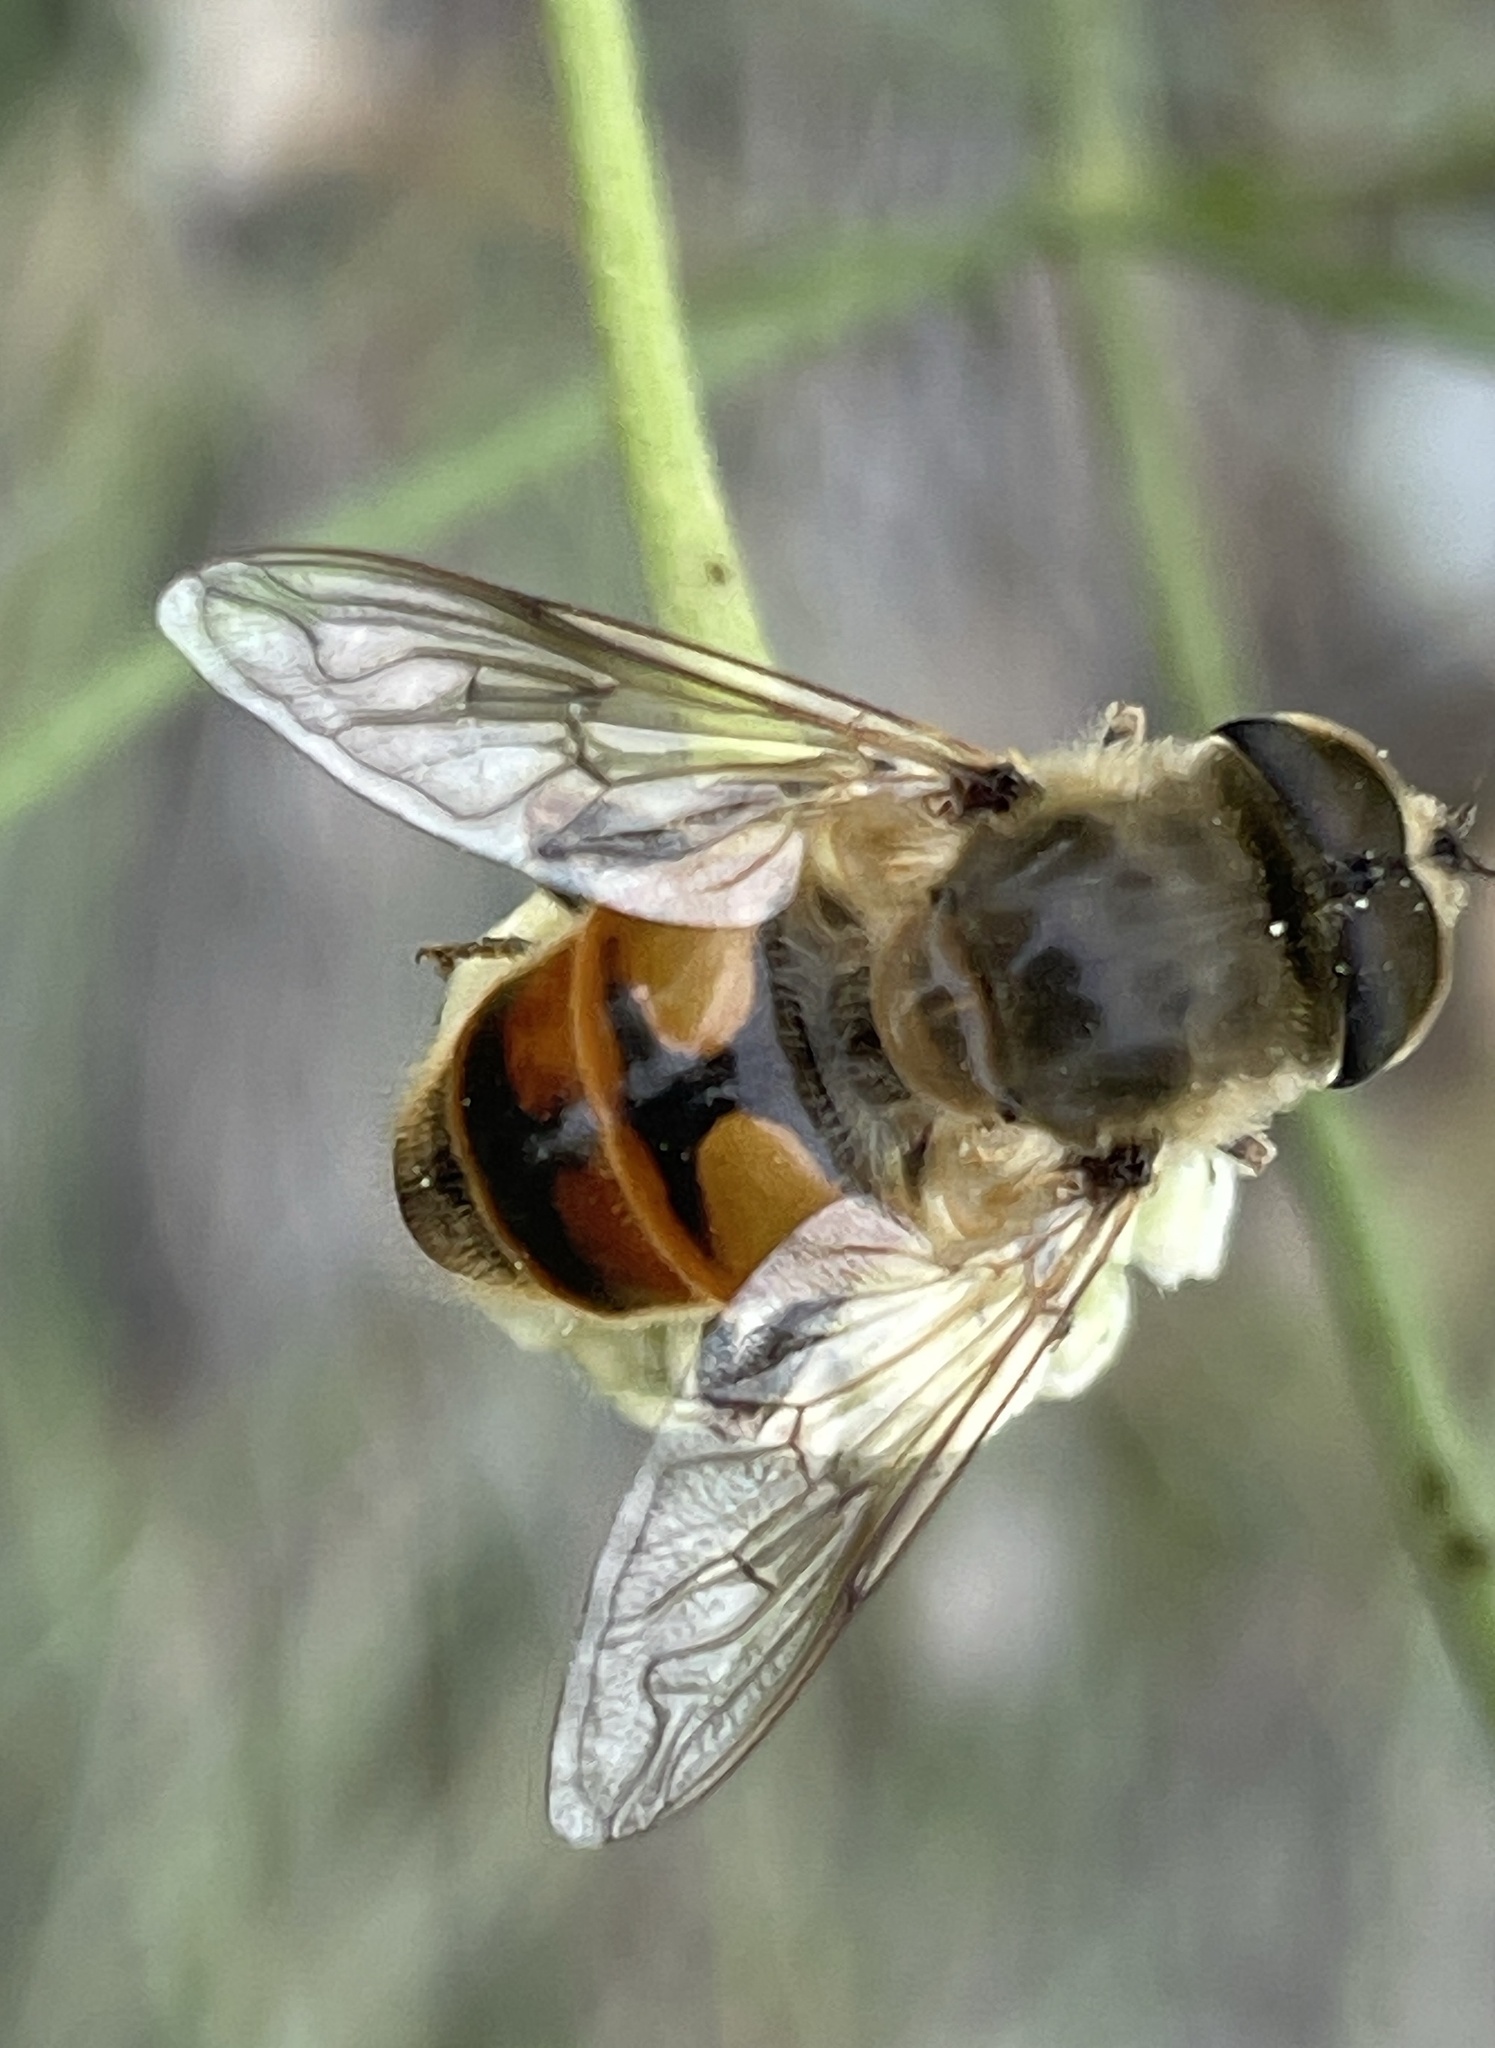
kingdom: Animalia
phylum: Arthropoda
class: Insecta
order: Diptera
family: Syrphidae
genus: Eristalis
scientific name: Eristalis tenax
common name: Drone fly
